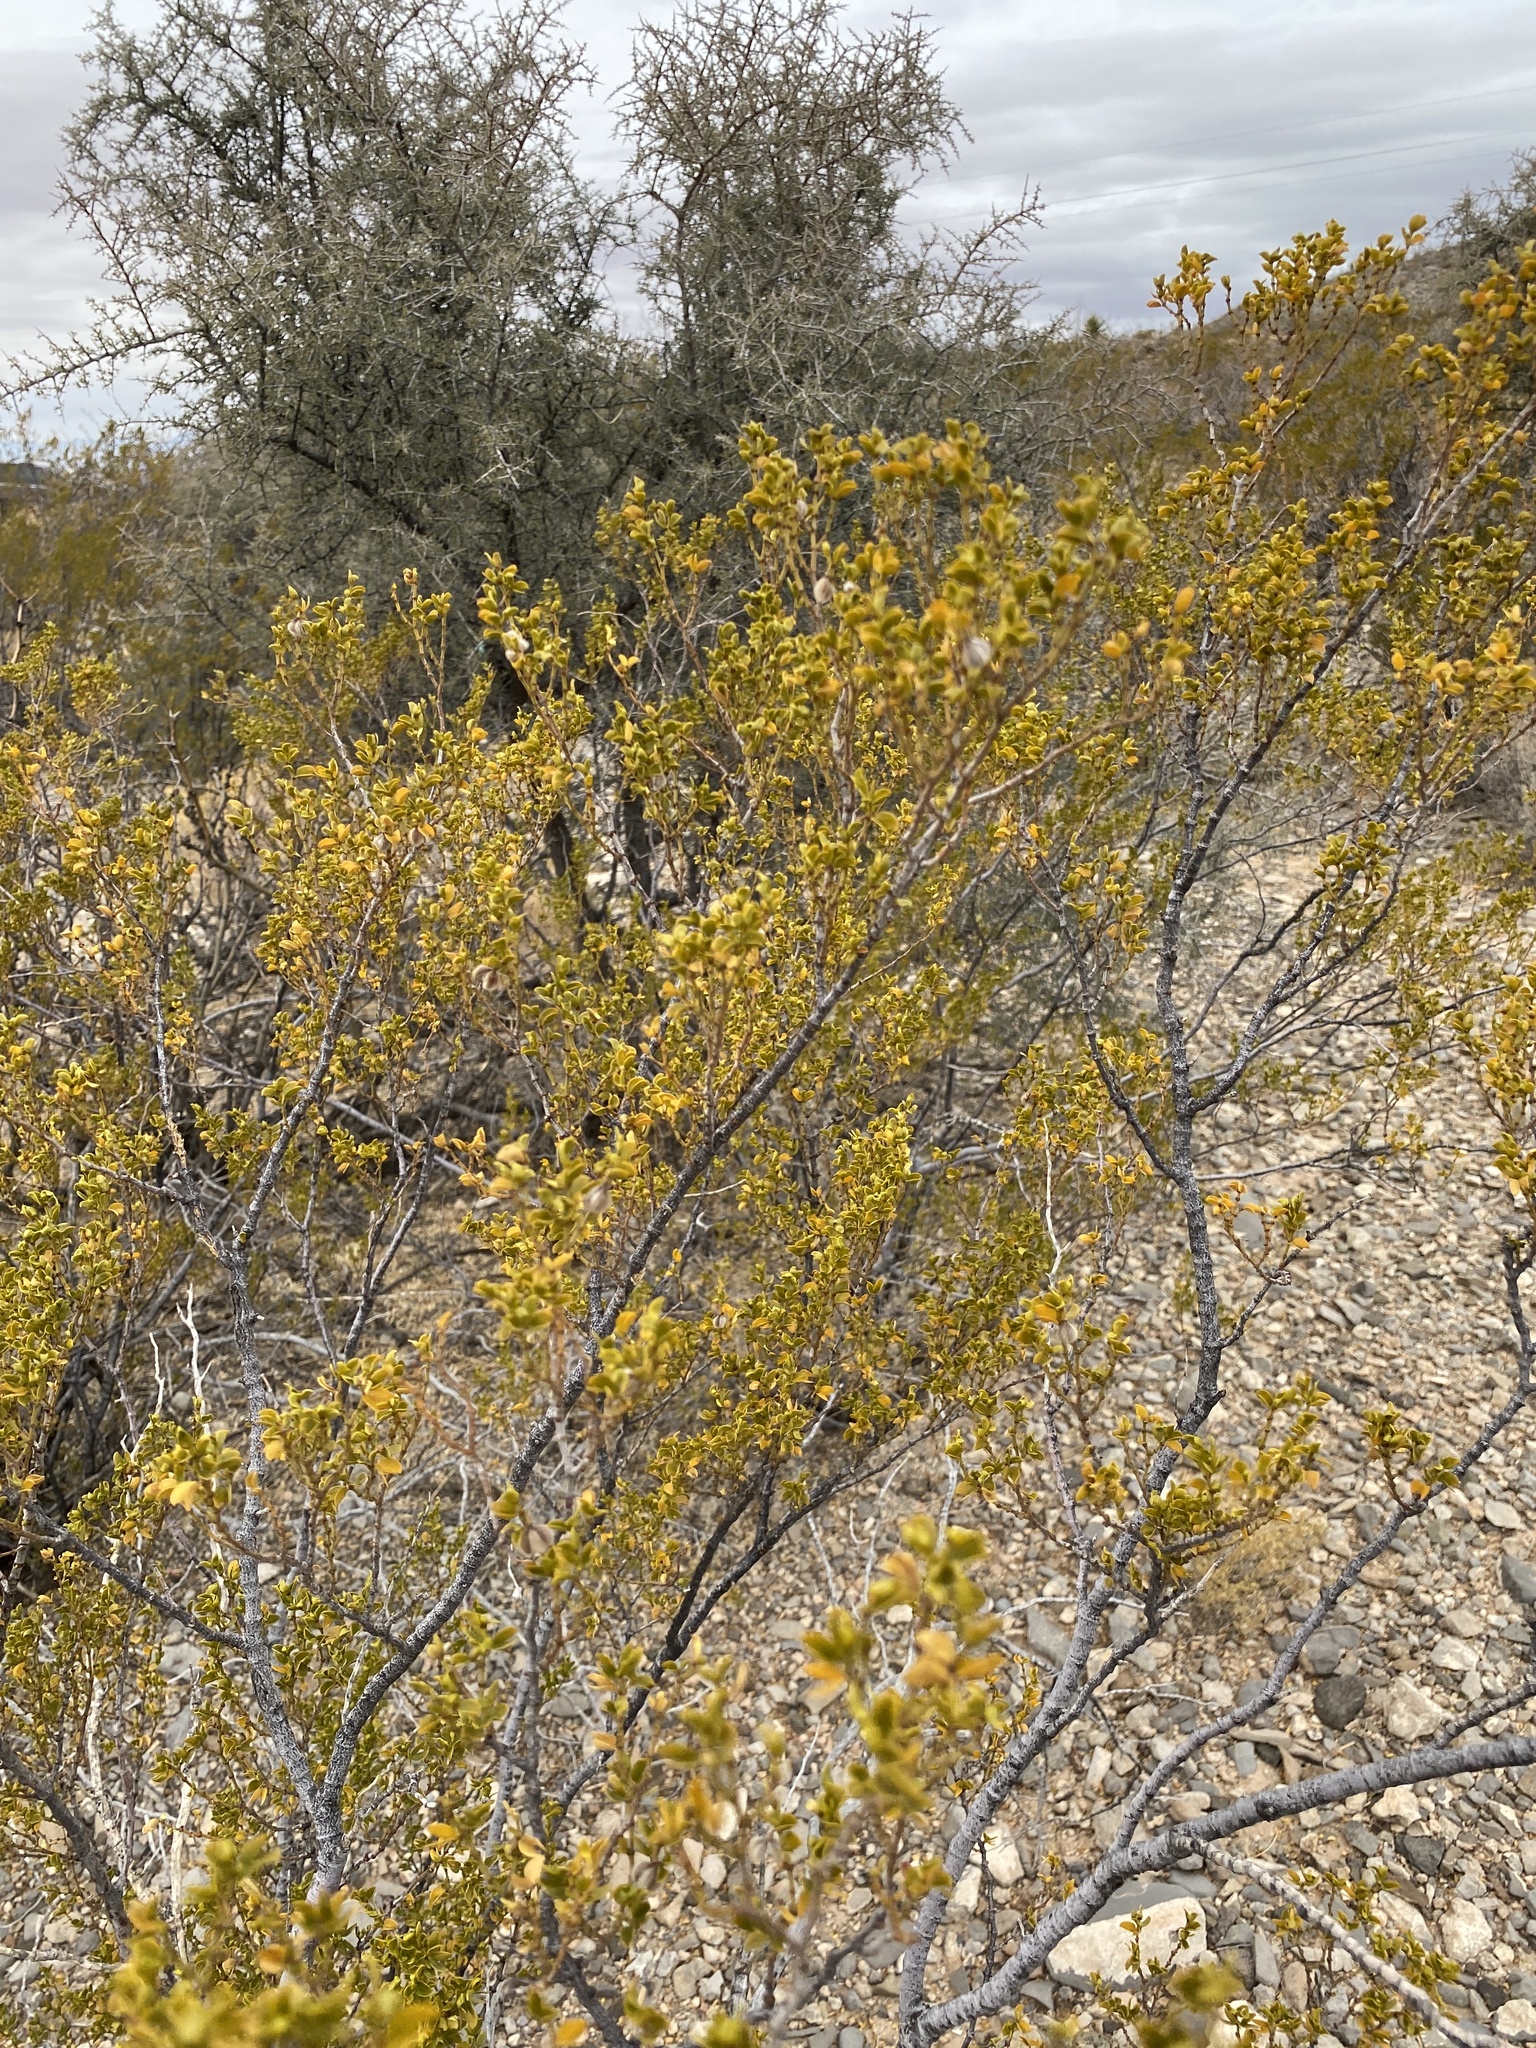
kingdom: Plantae
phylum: Tracheophyta
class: Magnoliopsida
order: Zygophyllales
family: Zygophyllaceae
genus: Larrea
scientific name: Larrea tridentata
